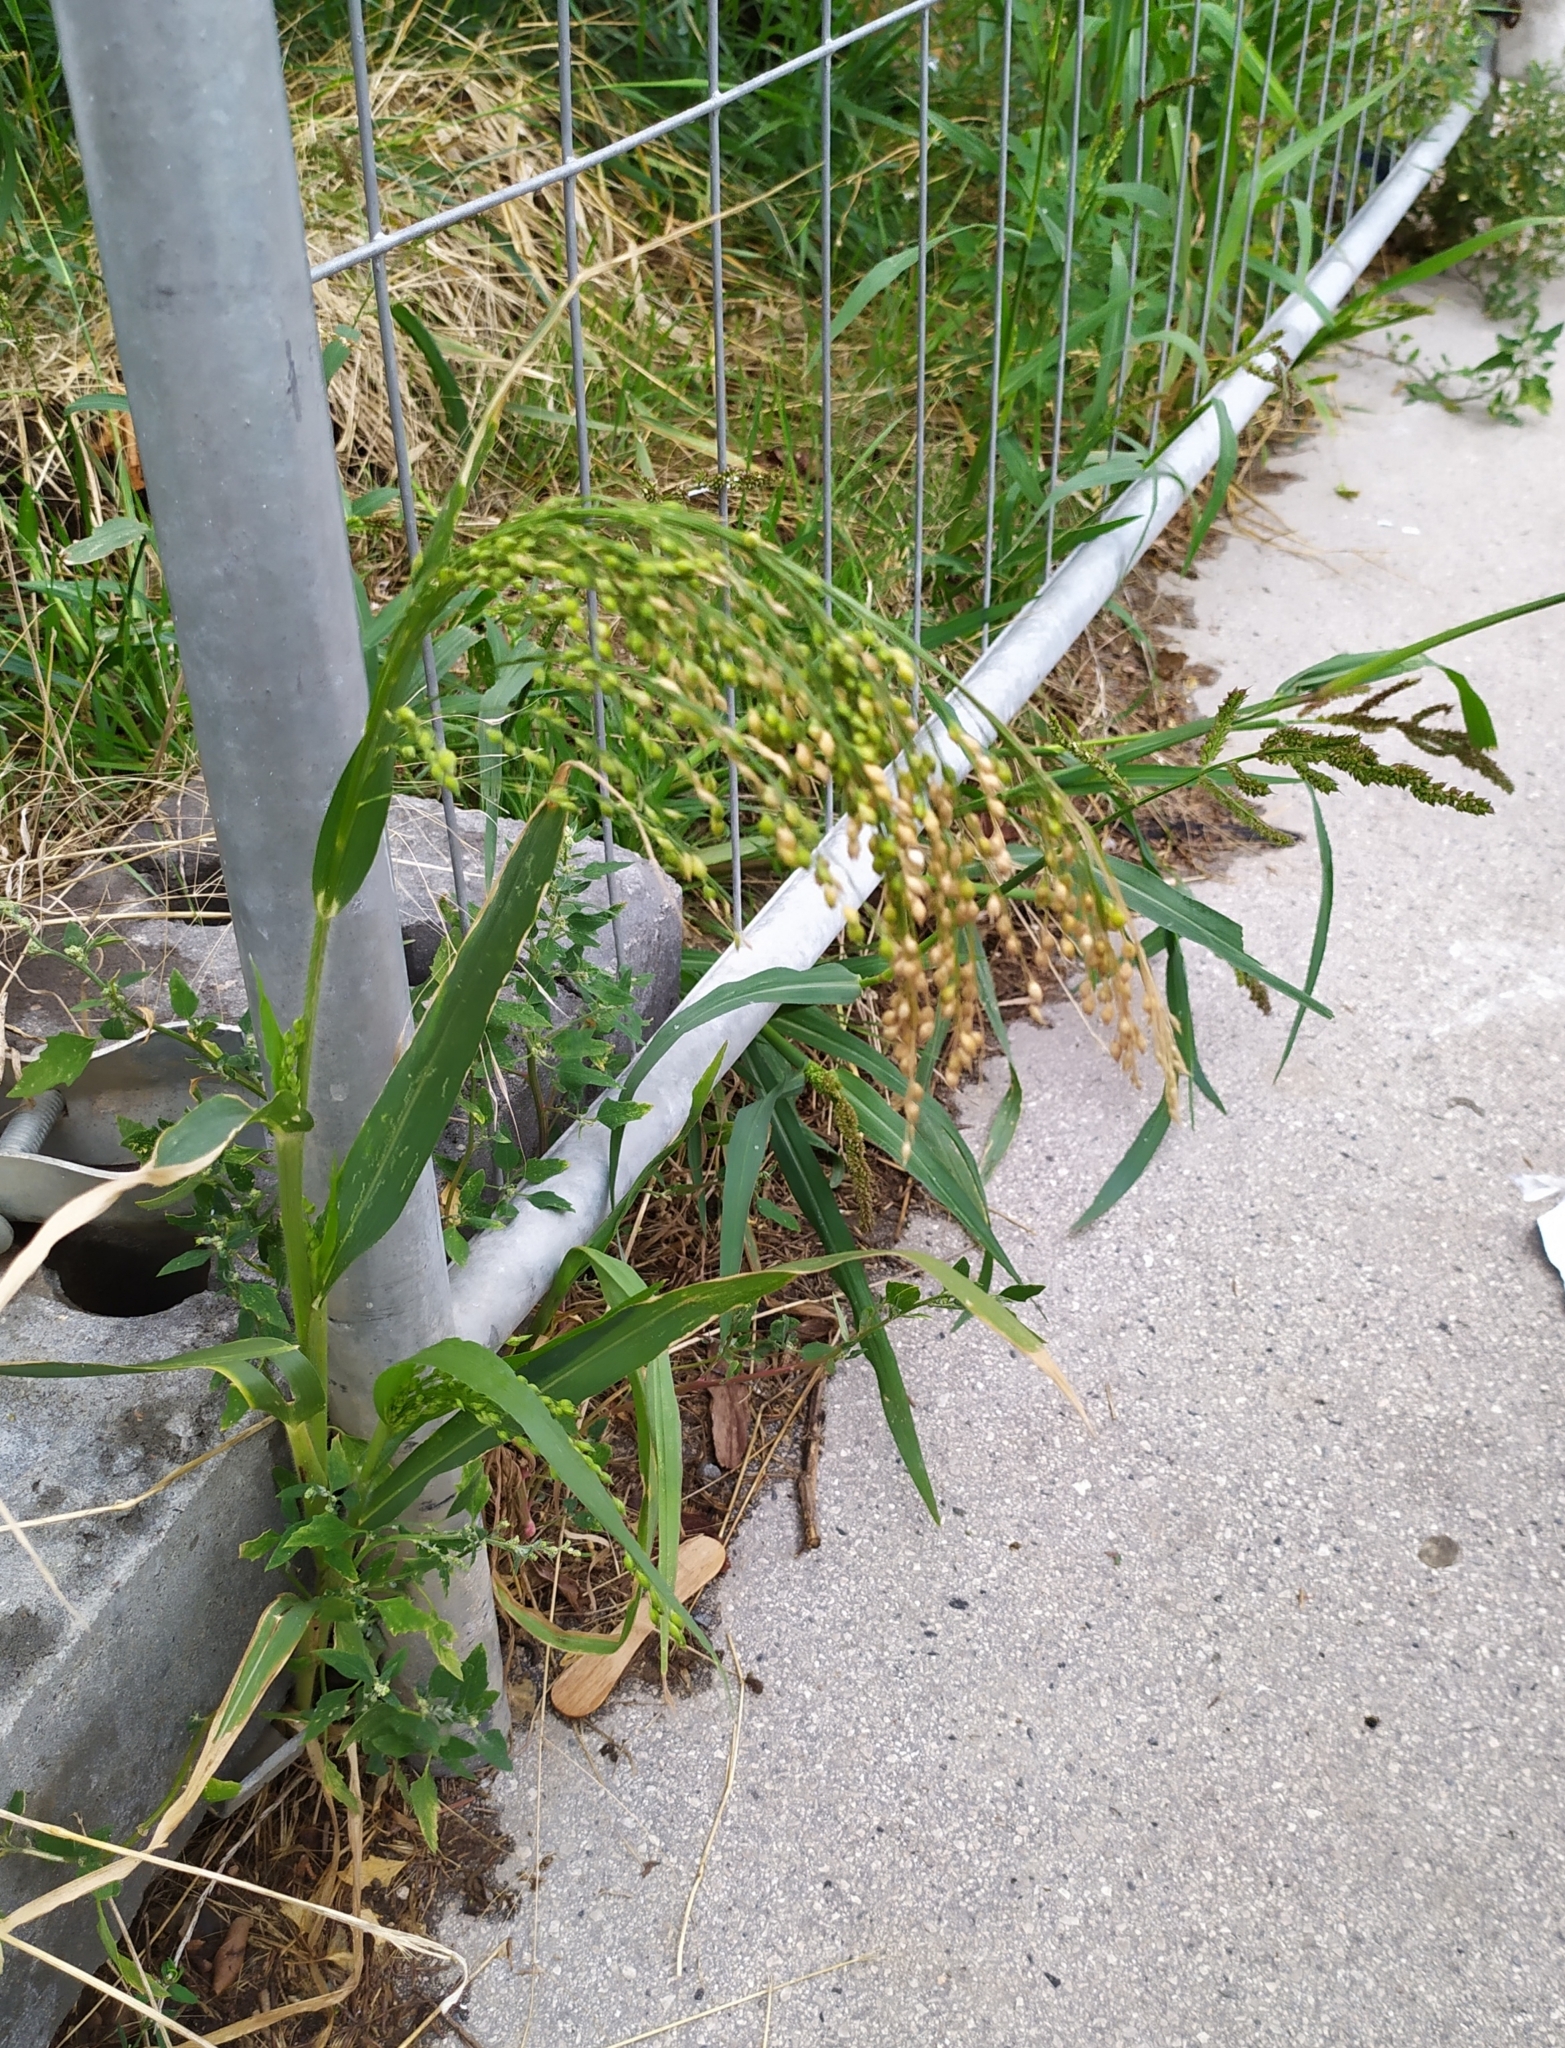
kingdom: Plantae
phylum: Tracheophyta
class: Liliopsida
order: Poales
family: Poaceae
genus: Panicum
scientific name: Panicum miliaceum
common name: Common millet
